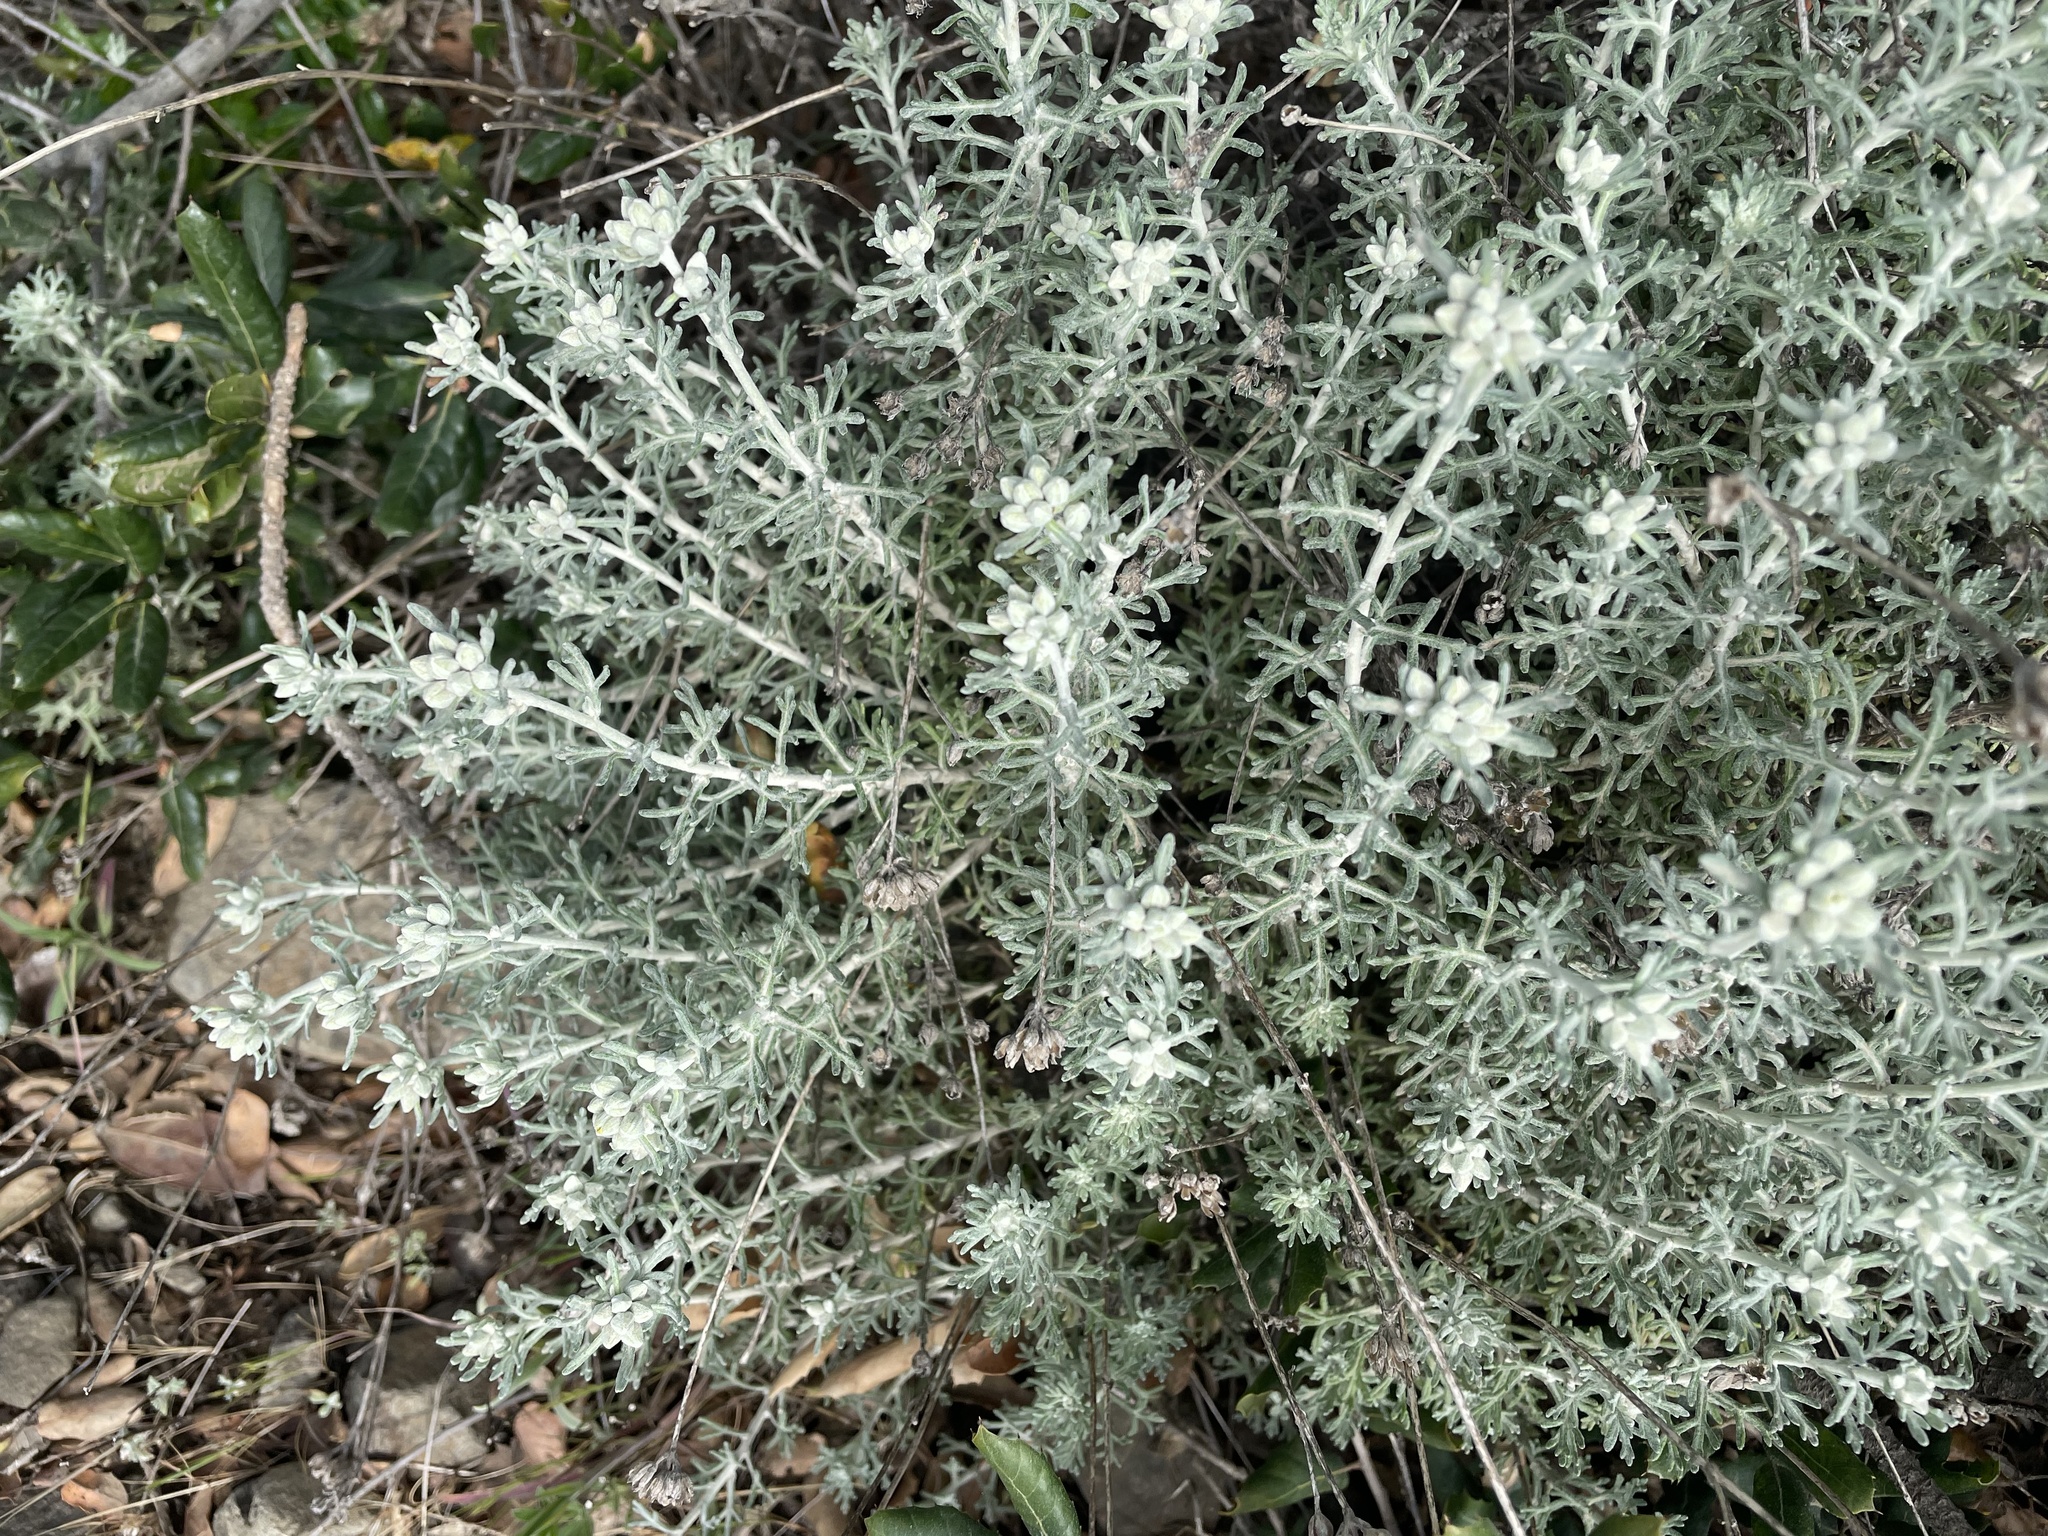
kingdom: Plantae
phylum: Tracheophyta
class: Magnoliopsida
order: Asterales
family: Asteraceae
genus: Eriophyllum
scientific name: Eriophyllum confertiflorum
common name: Golden-yarrow
